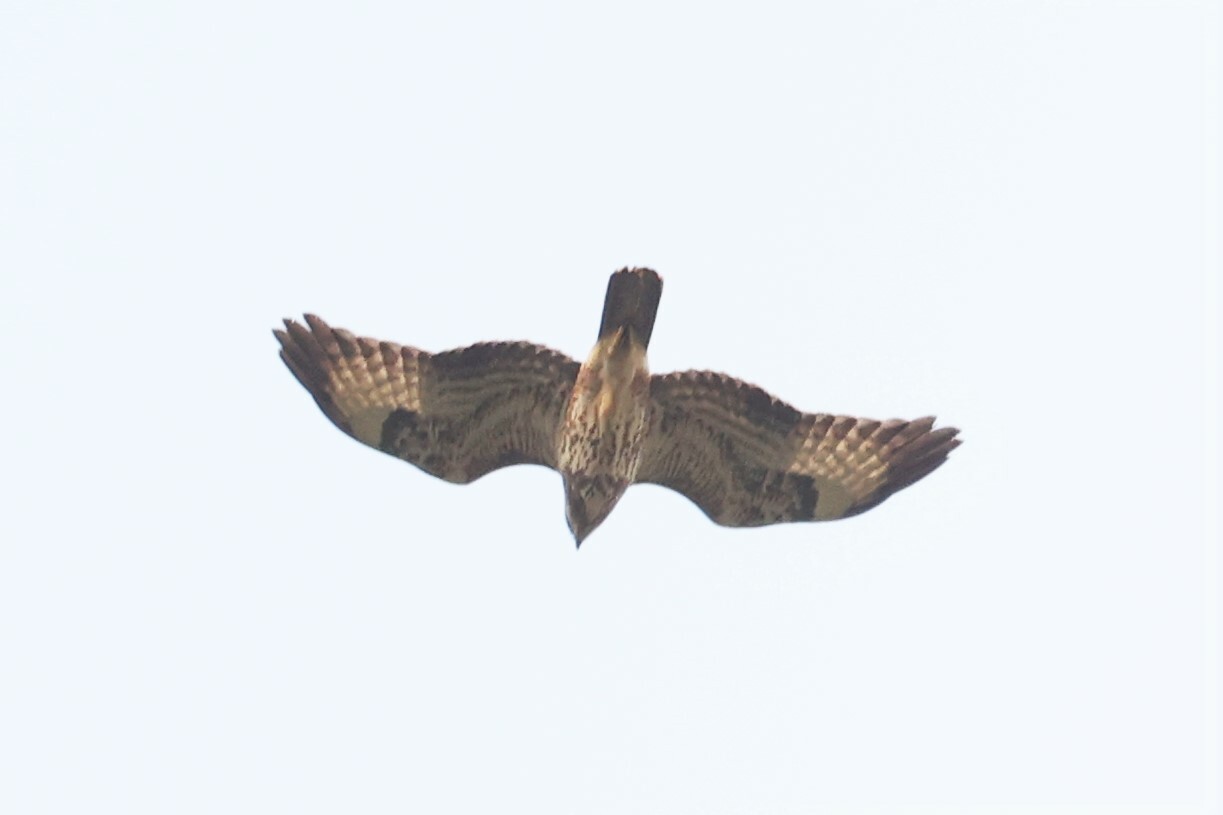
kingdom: Animalia
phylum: Chordata
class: Aves
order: Accipitriformes
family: Accipitridae
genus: Buteo
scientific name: Buteo buteo
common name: Common buzzard
